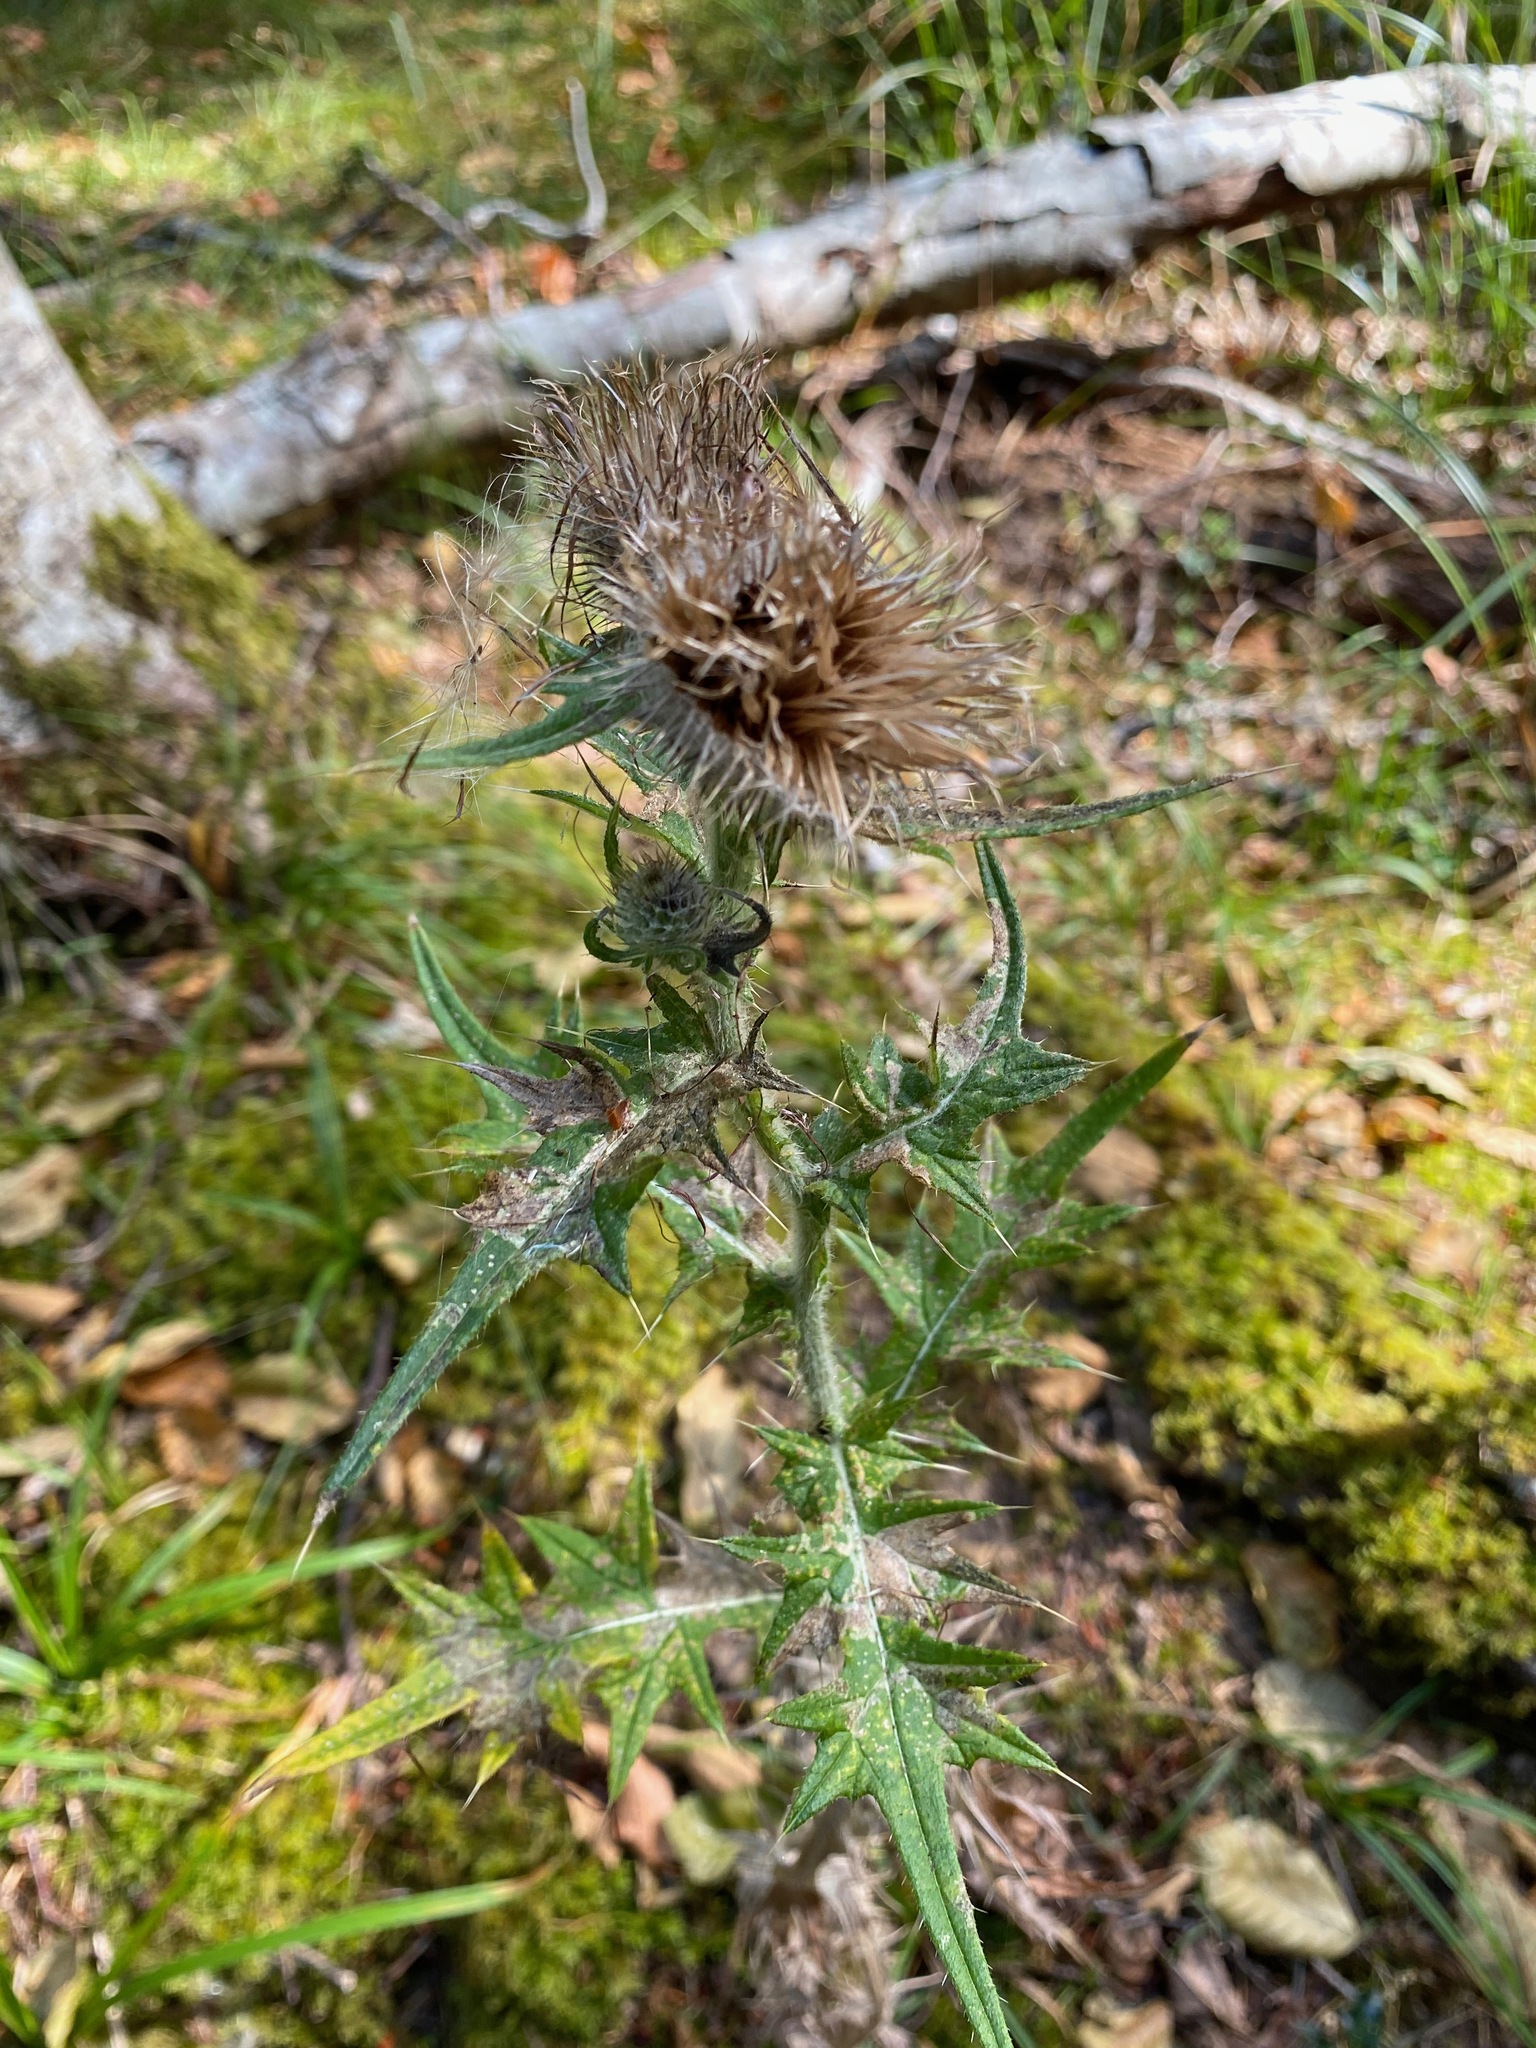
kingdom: Plantae
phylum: Tracheophyta
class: Magnoliopsida
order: Asterales
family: Asteraceae
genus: Cirsium
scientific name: Cirsium vulgare
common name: Bull thistle
